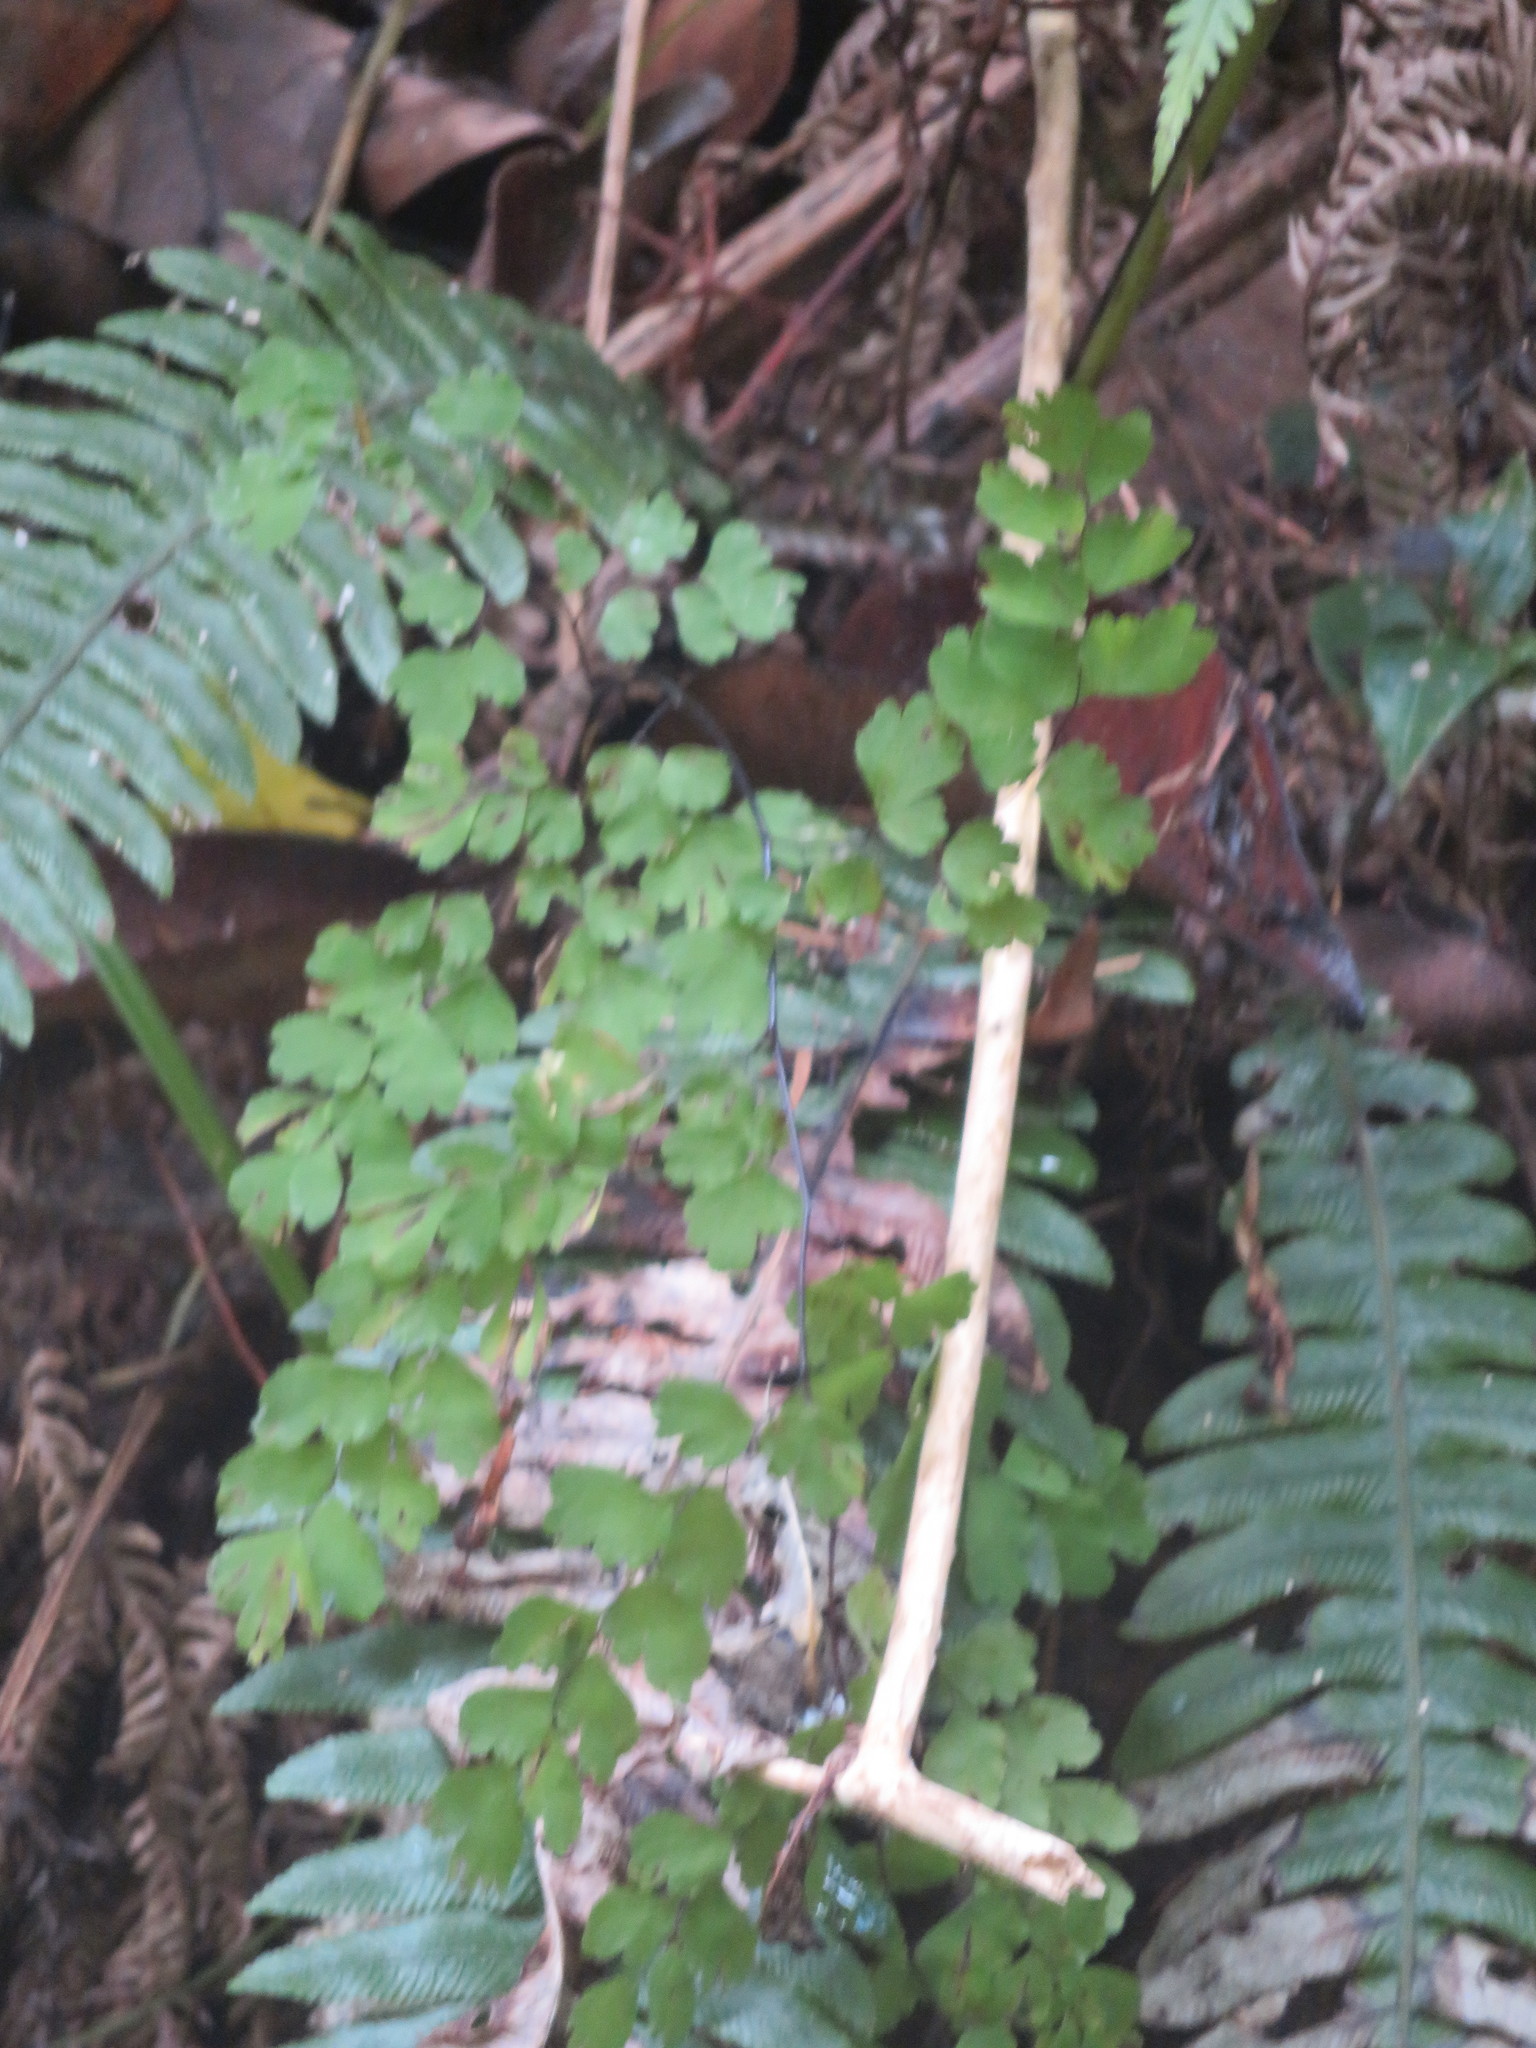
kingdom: Plantae
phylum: Tracheophyta
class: Polypodiopsida
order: Polypodiales
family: Blechnaceae
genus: Austroblechnum
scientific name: Austroblechnum lanceolatum
